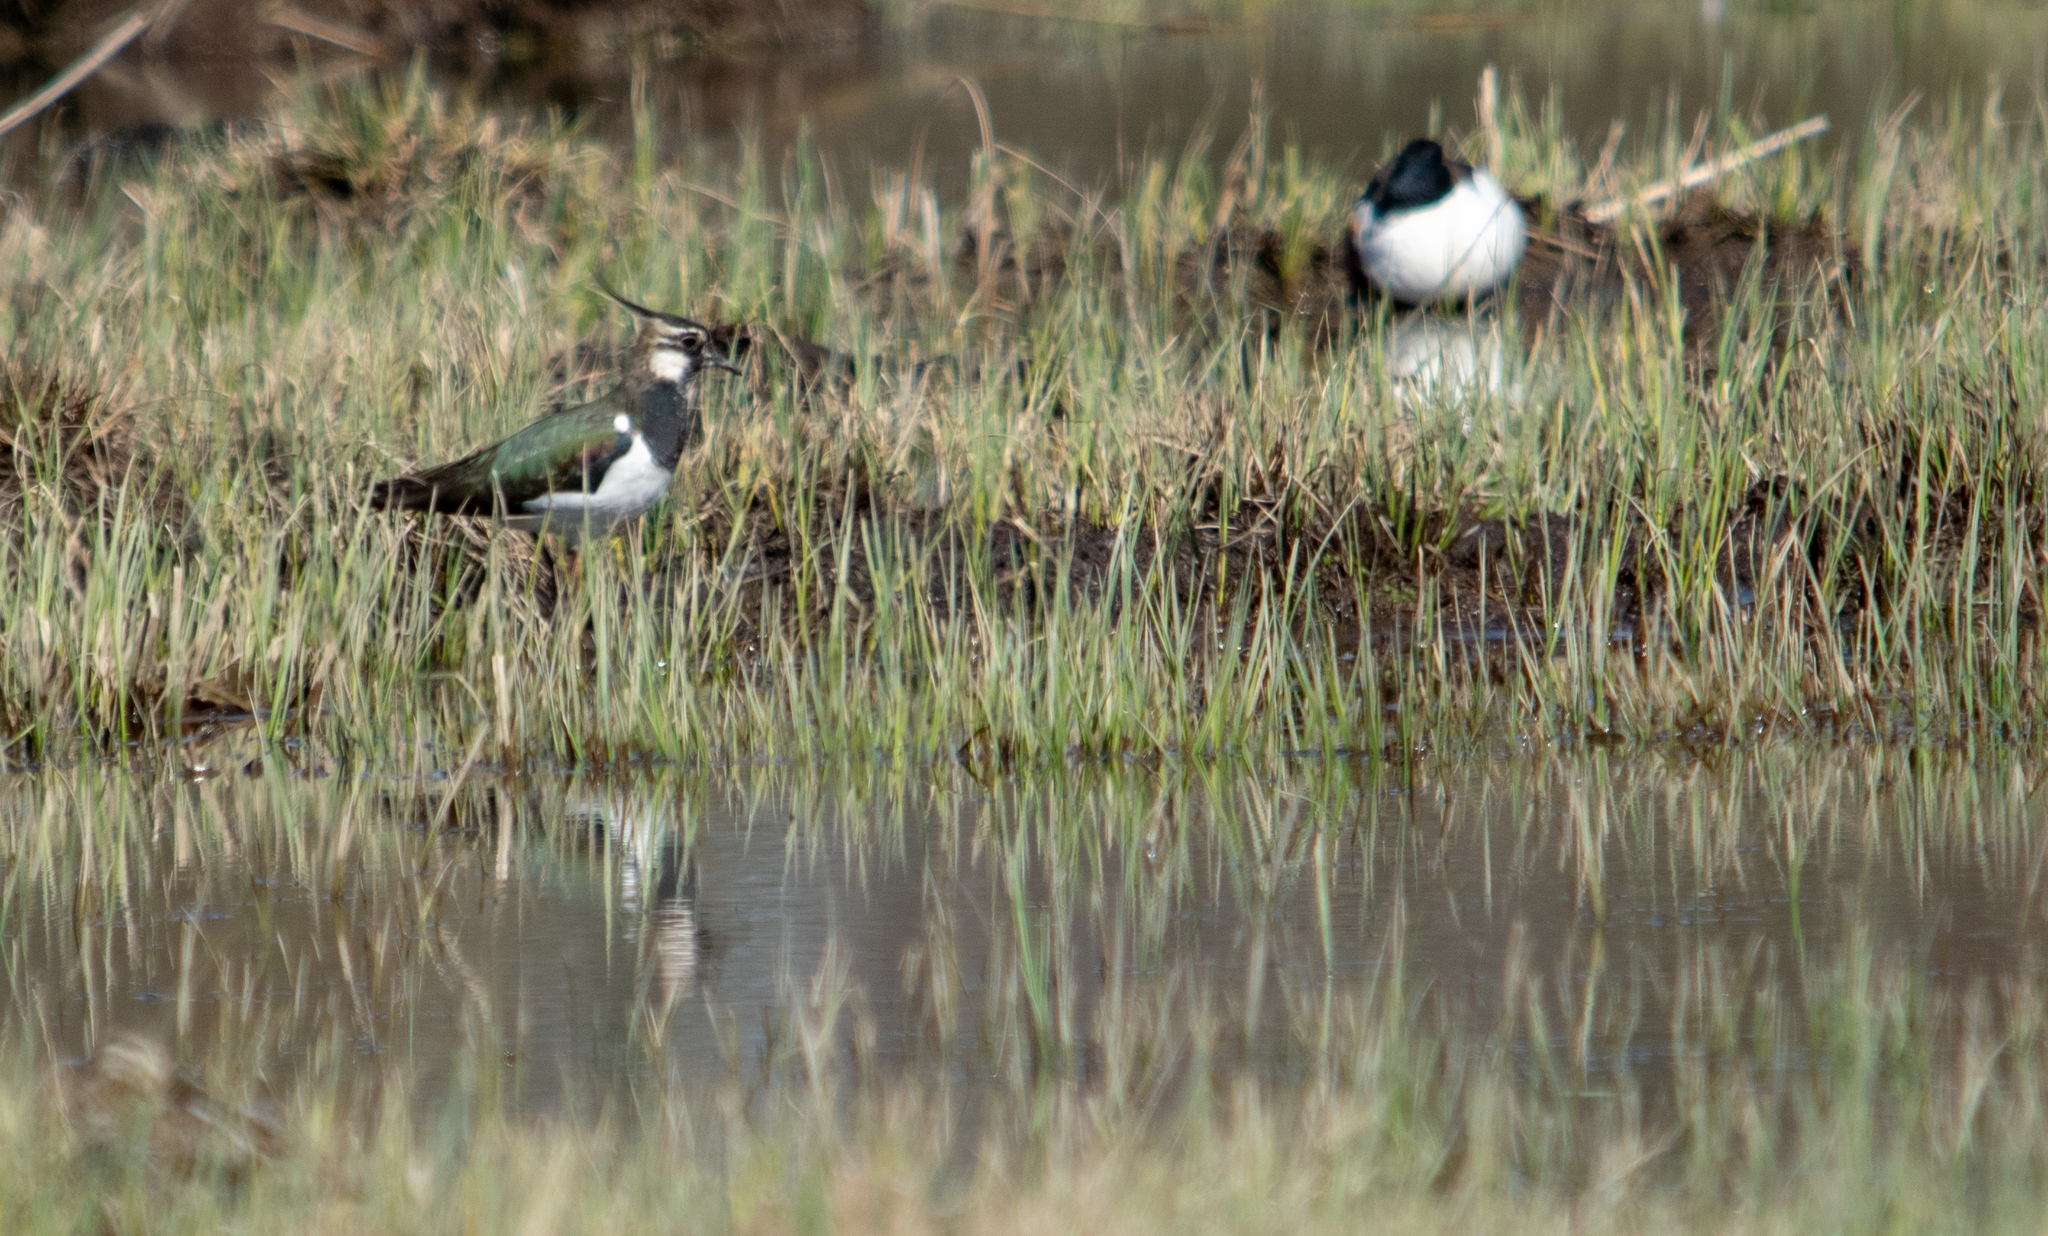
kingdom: Animalia
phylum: Chordata
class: Aves
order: Charadriiformes
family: Charadriidae
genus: Vanellus
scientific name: Vanellus vanellus
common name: Northern lapwing
